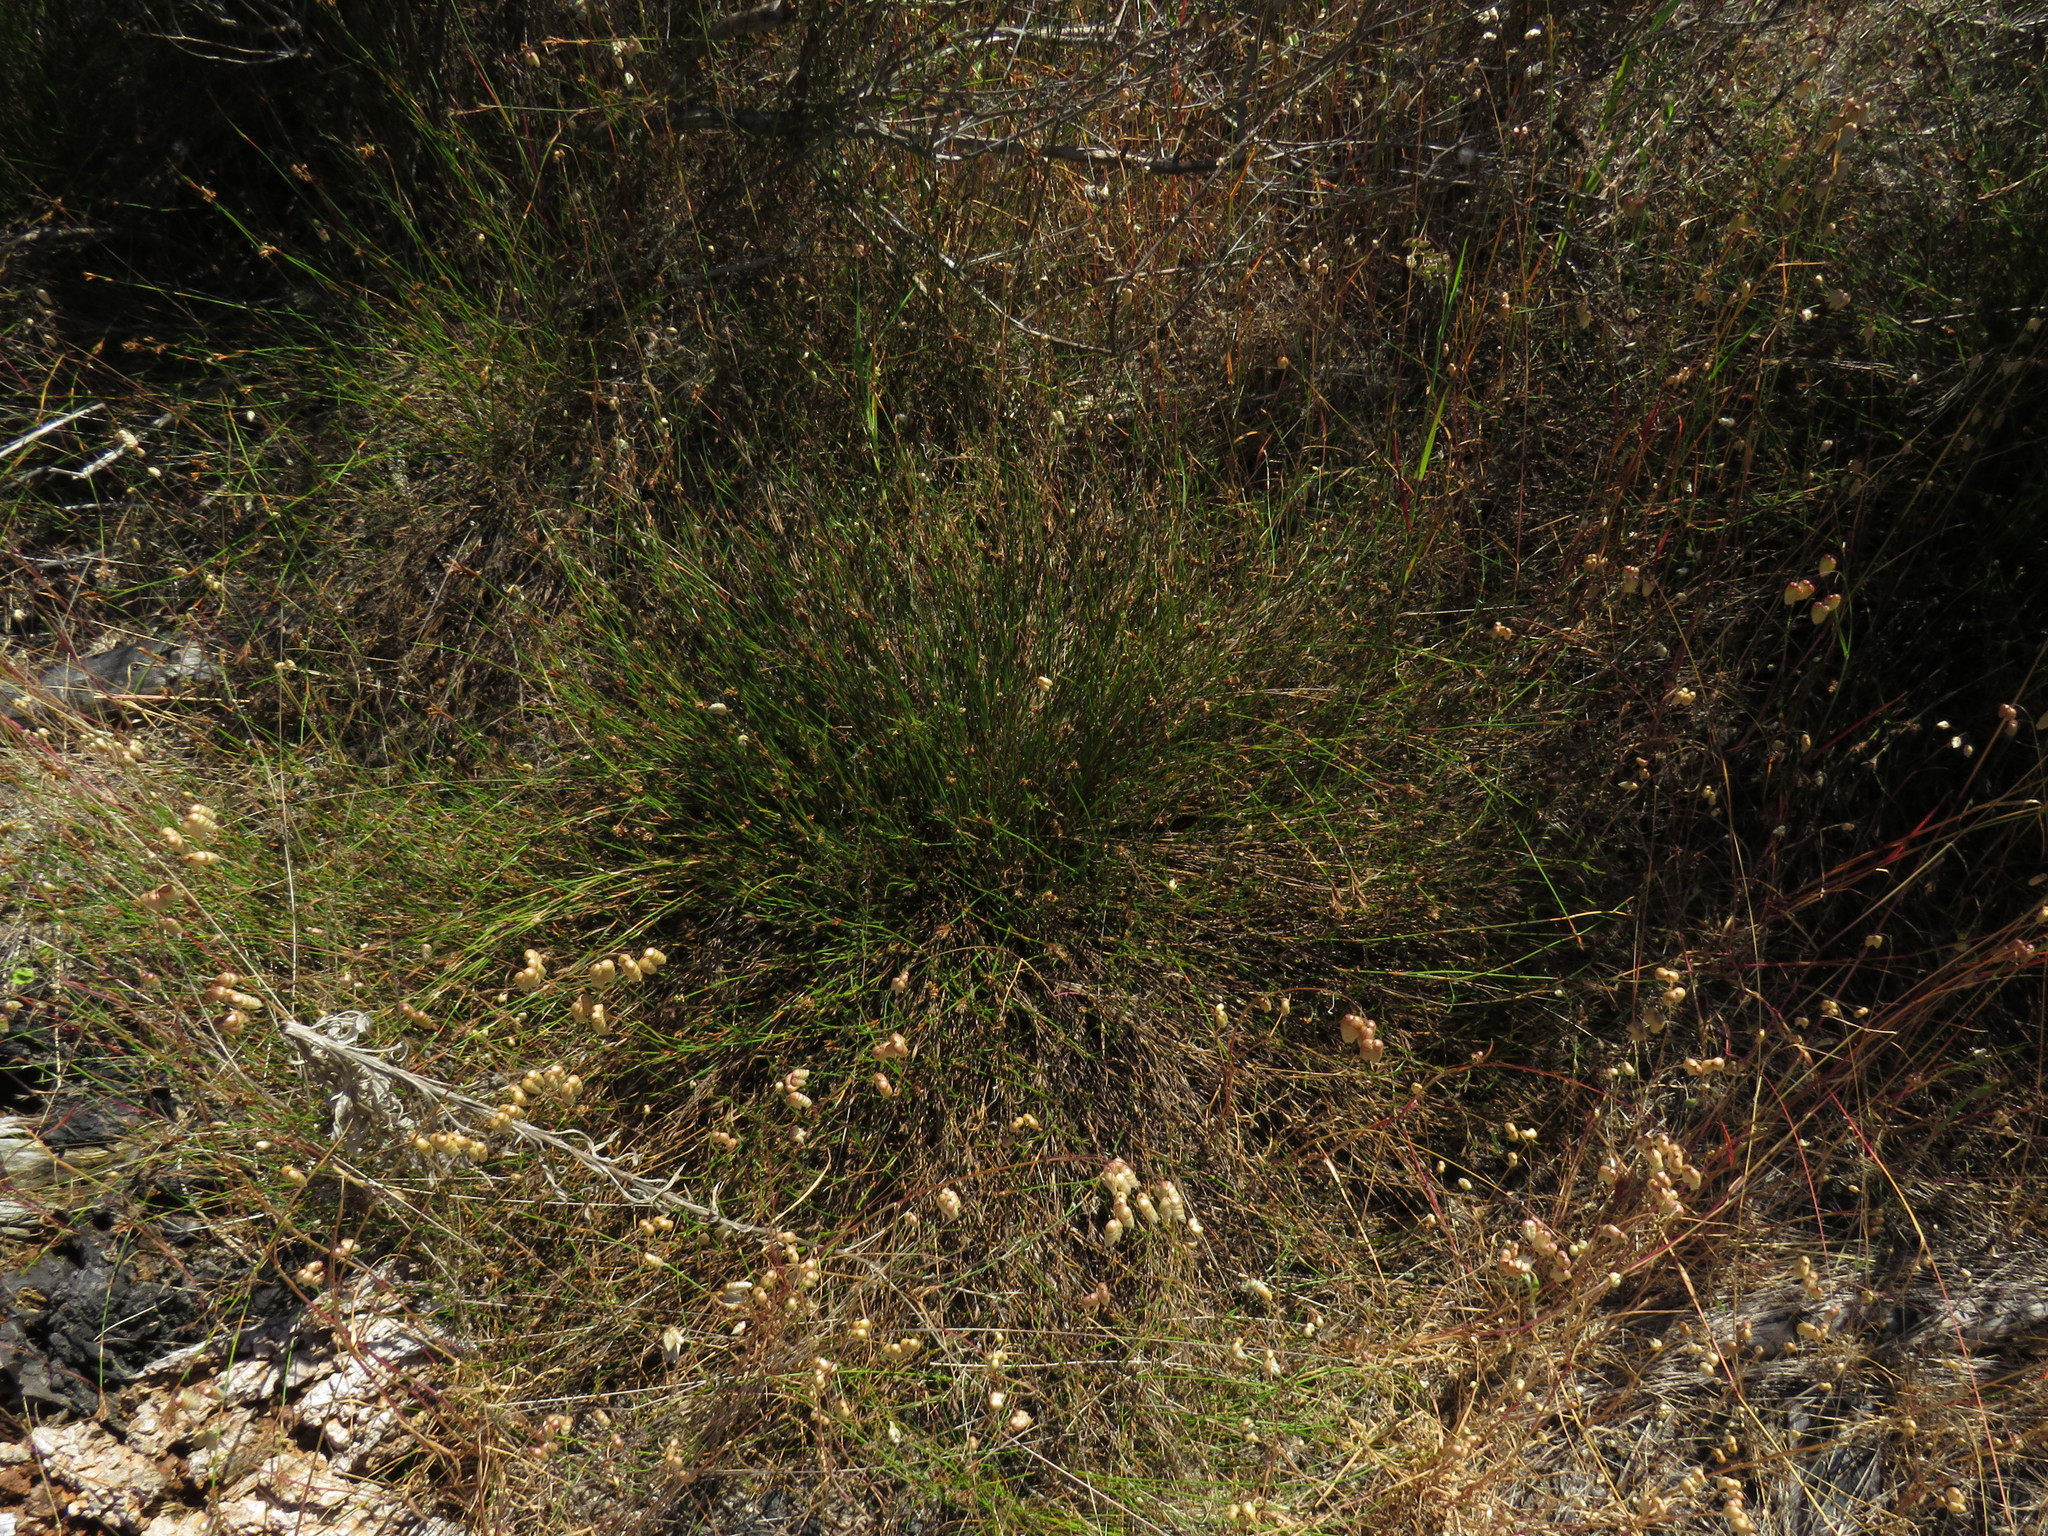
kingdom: Plantae
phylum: Tracheophyta
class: Liliopsida
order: Poales
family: Restionaceae
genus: Restio
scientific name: Restio capensis
